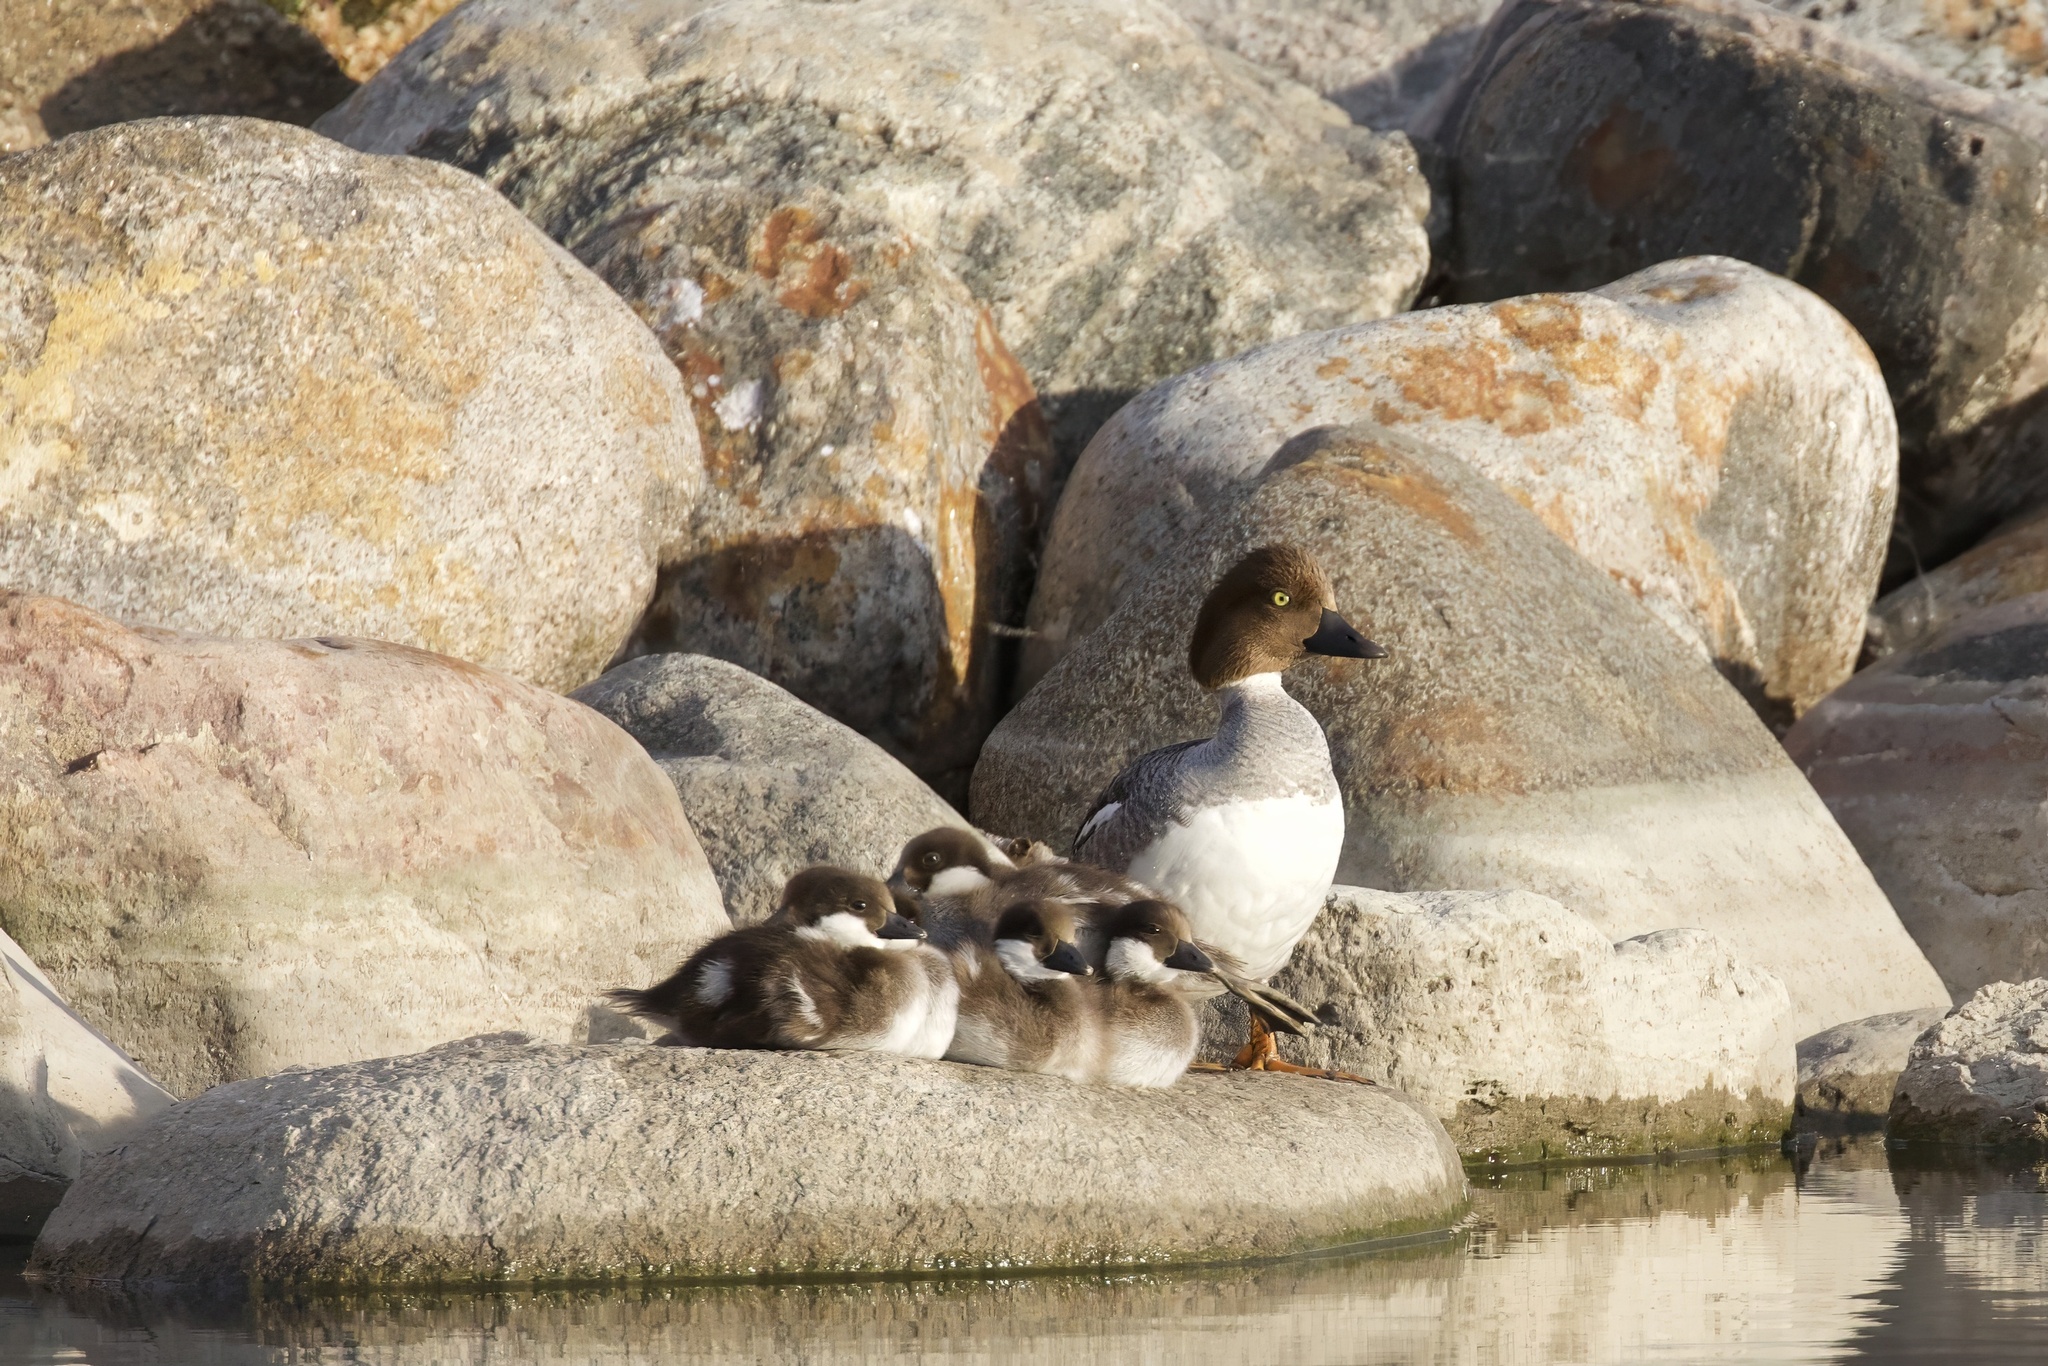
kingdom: Animalia
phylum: Chordata
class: Aves
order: Anseriformes
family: Anatidae
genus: Bucephala
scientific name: Bucephala clangula
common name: Common goldeneye
